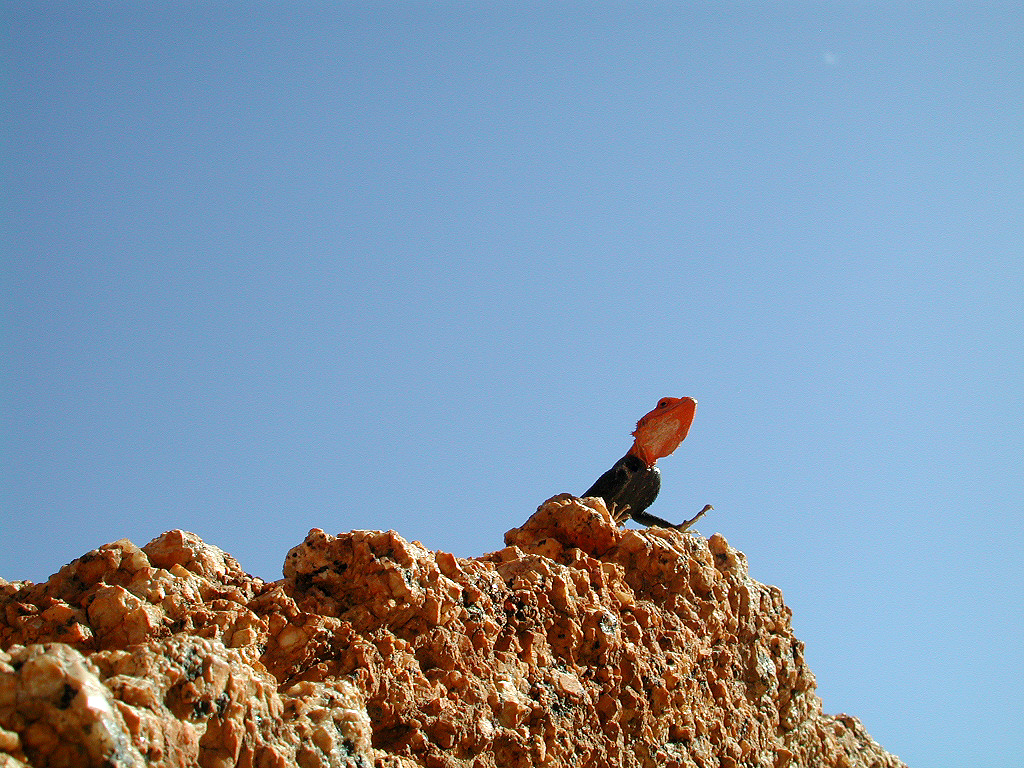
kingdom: Animalia
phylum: Chordata
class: Squamata
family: Agamidae
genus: Agama
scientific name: Agama planiceps
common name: Namib rock agama
